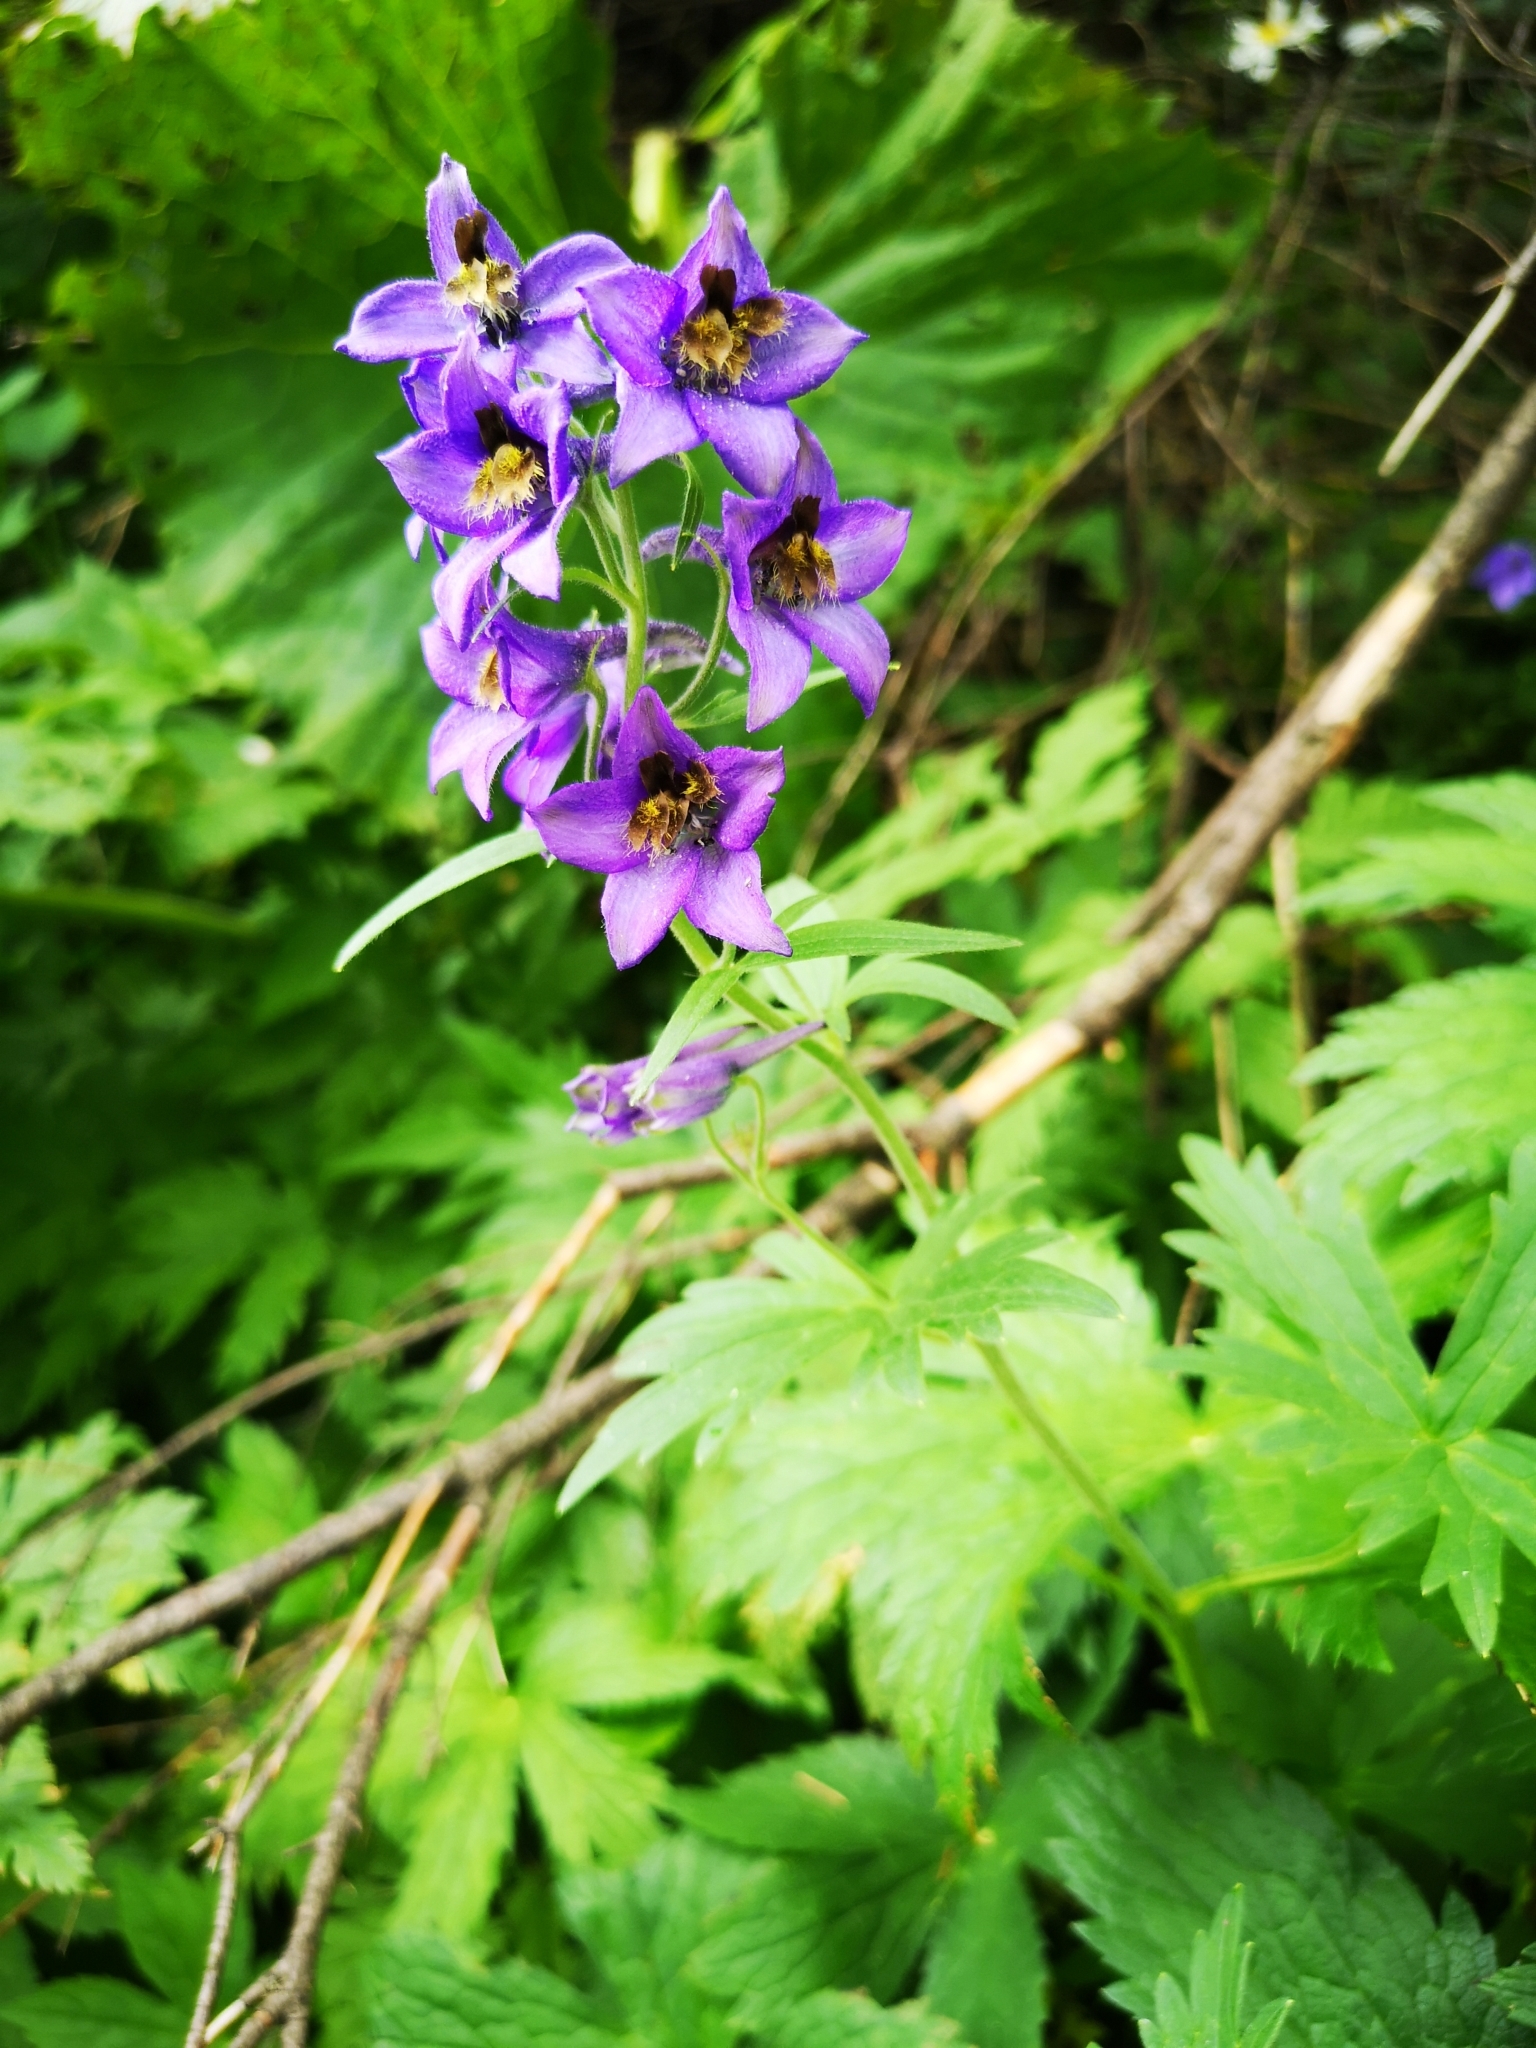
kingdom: Plantae
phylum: Tracheophyta
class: Magnoliopsida
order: Ranunculales
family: Ranunculaceae
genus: Delphinium
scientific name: Delphinium oxysepalum
